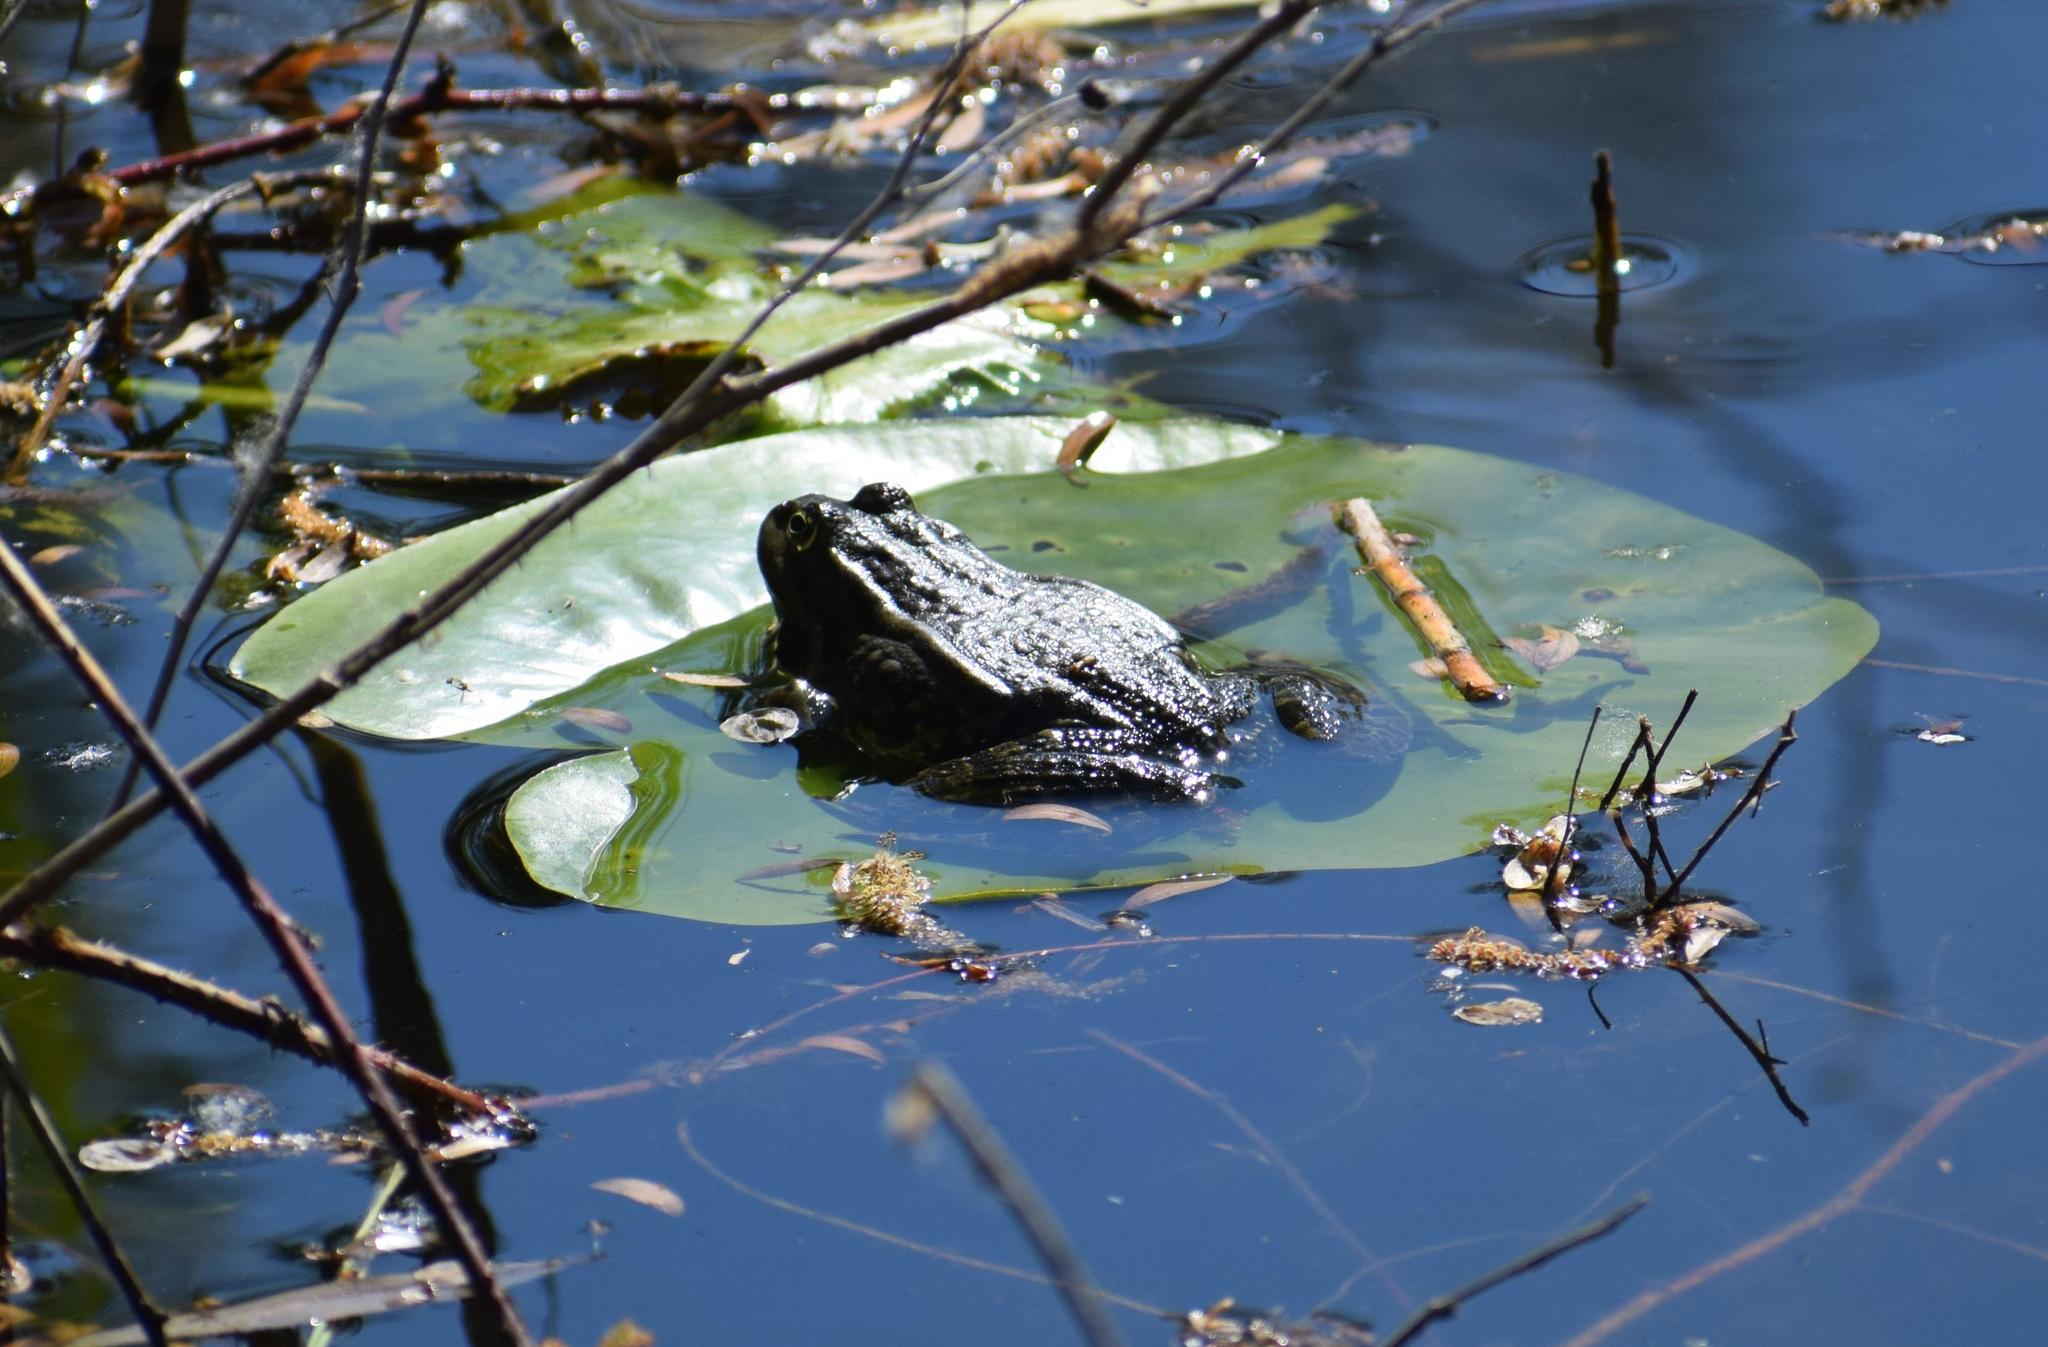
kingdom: Animalia
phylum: Chordata
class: Amphibia
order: Anura
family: Ranidae
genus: Pelophylax
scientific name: Pelophylax ridibundus
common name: Marsh frog
